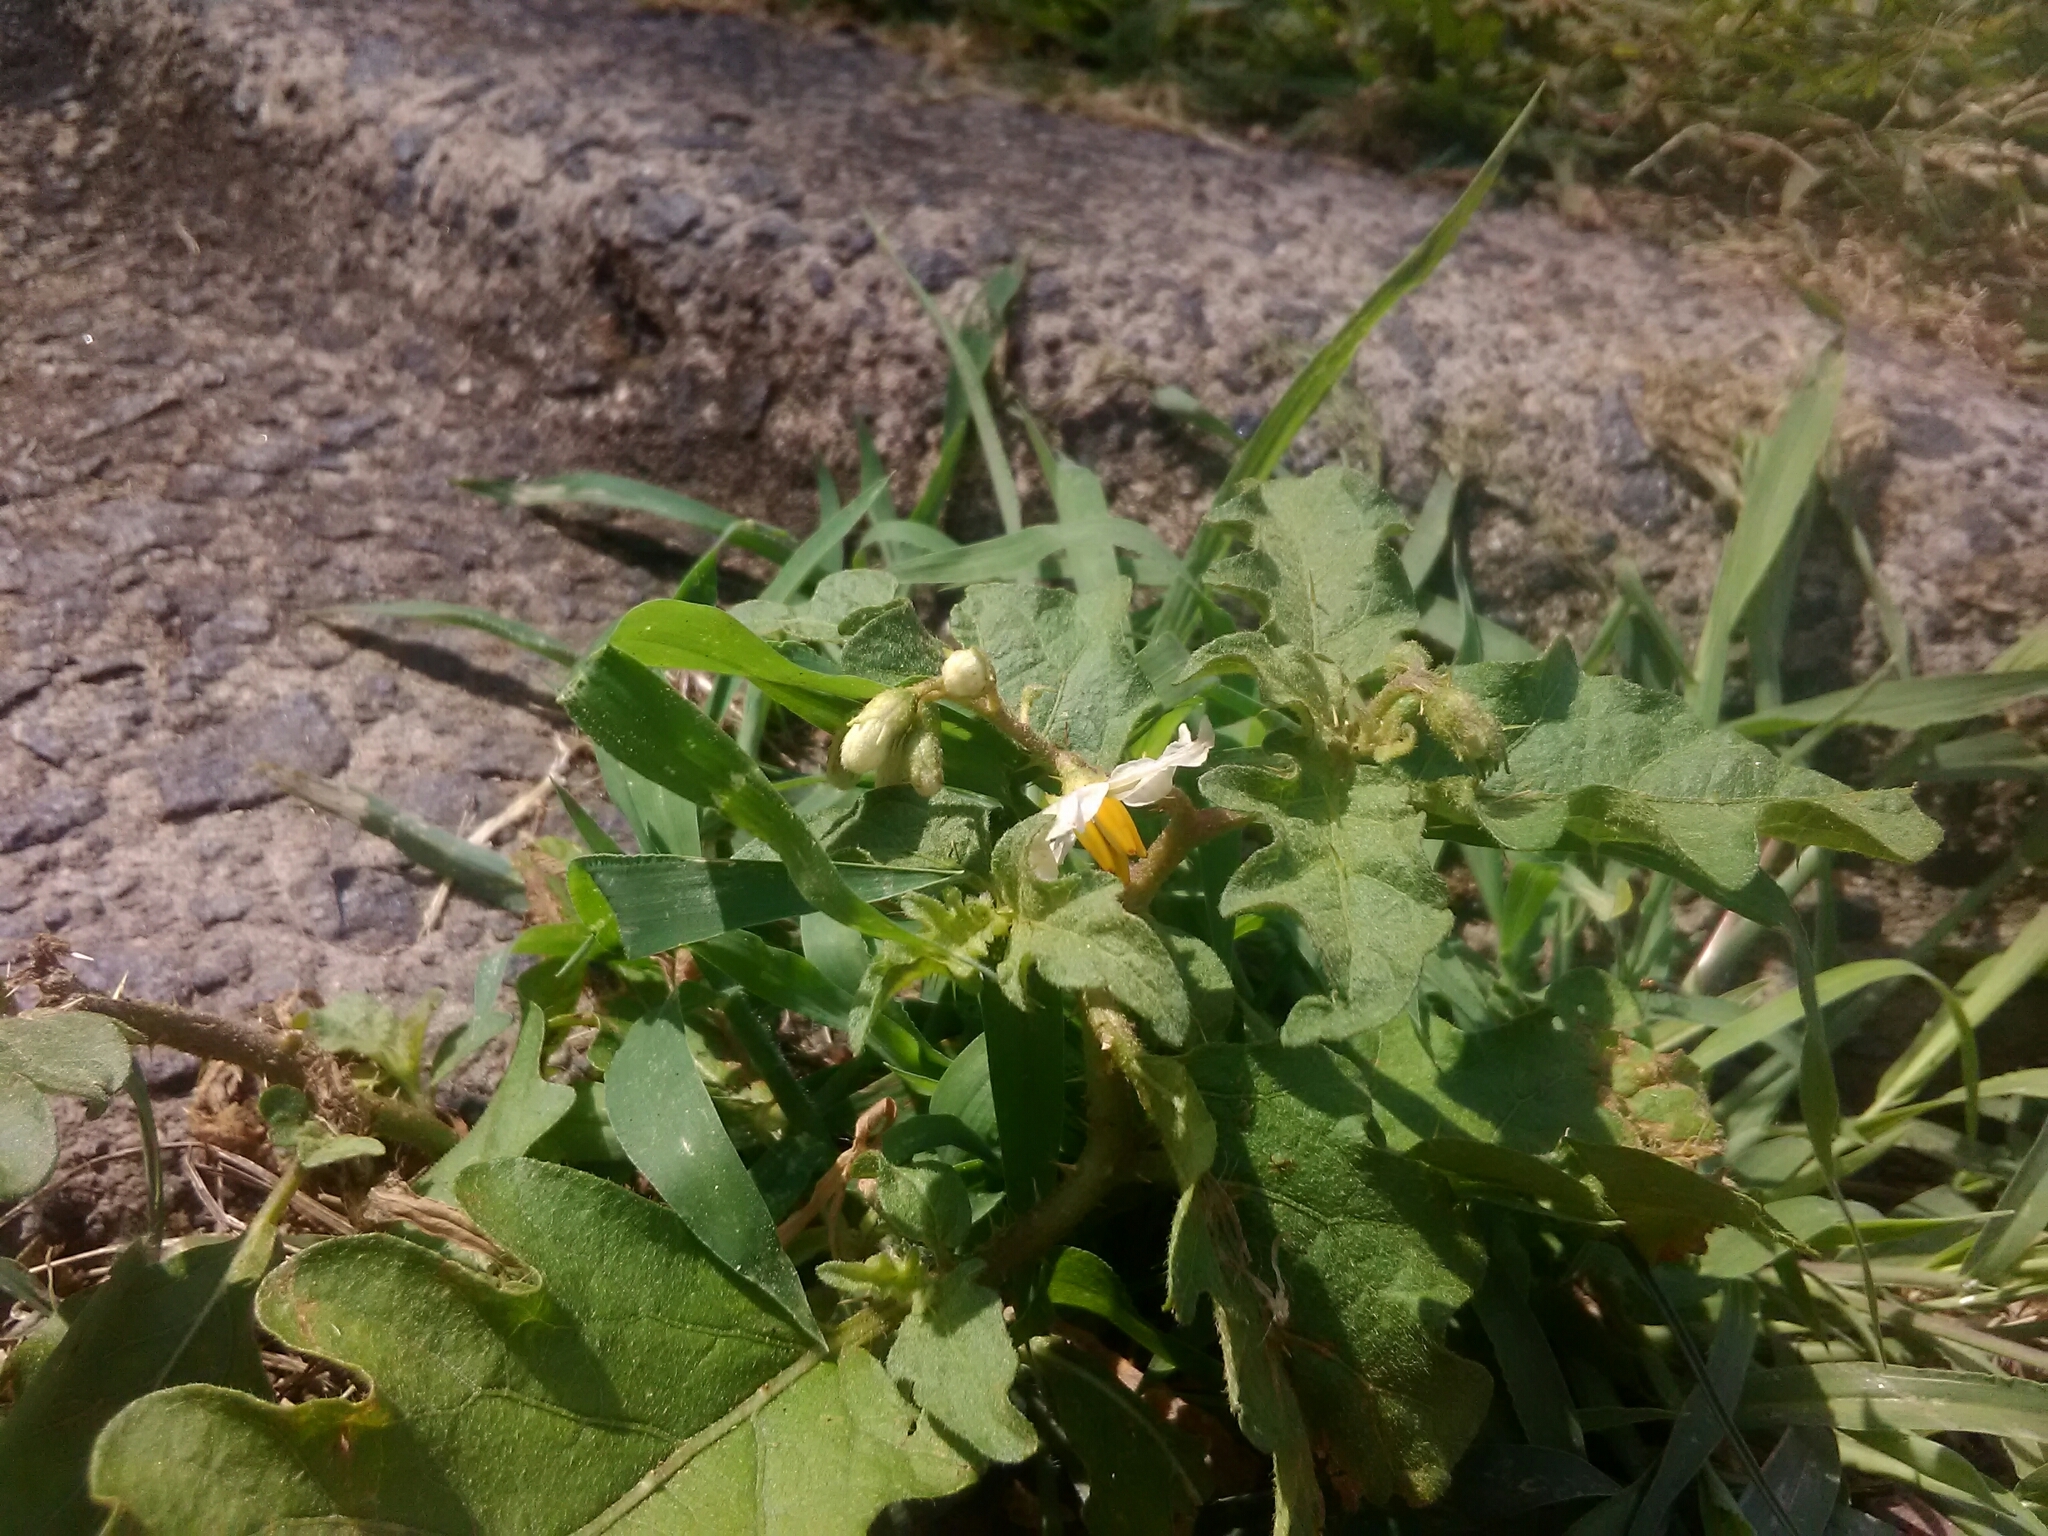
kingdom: Plantae
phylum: Tracheophyta
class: Magnoliopsida
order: Solanales
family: Solanaceae
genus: Solanum
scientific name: Solanum carolinense
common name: Horse-nettle
